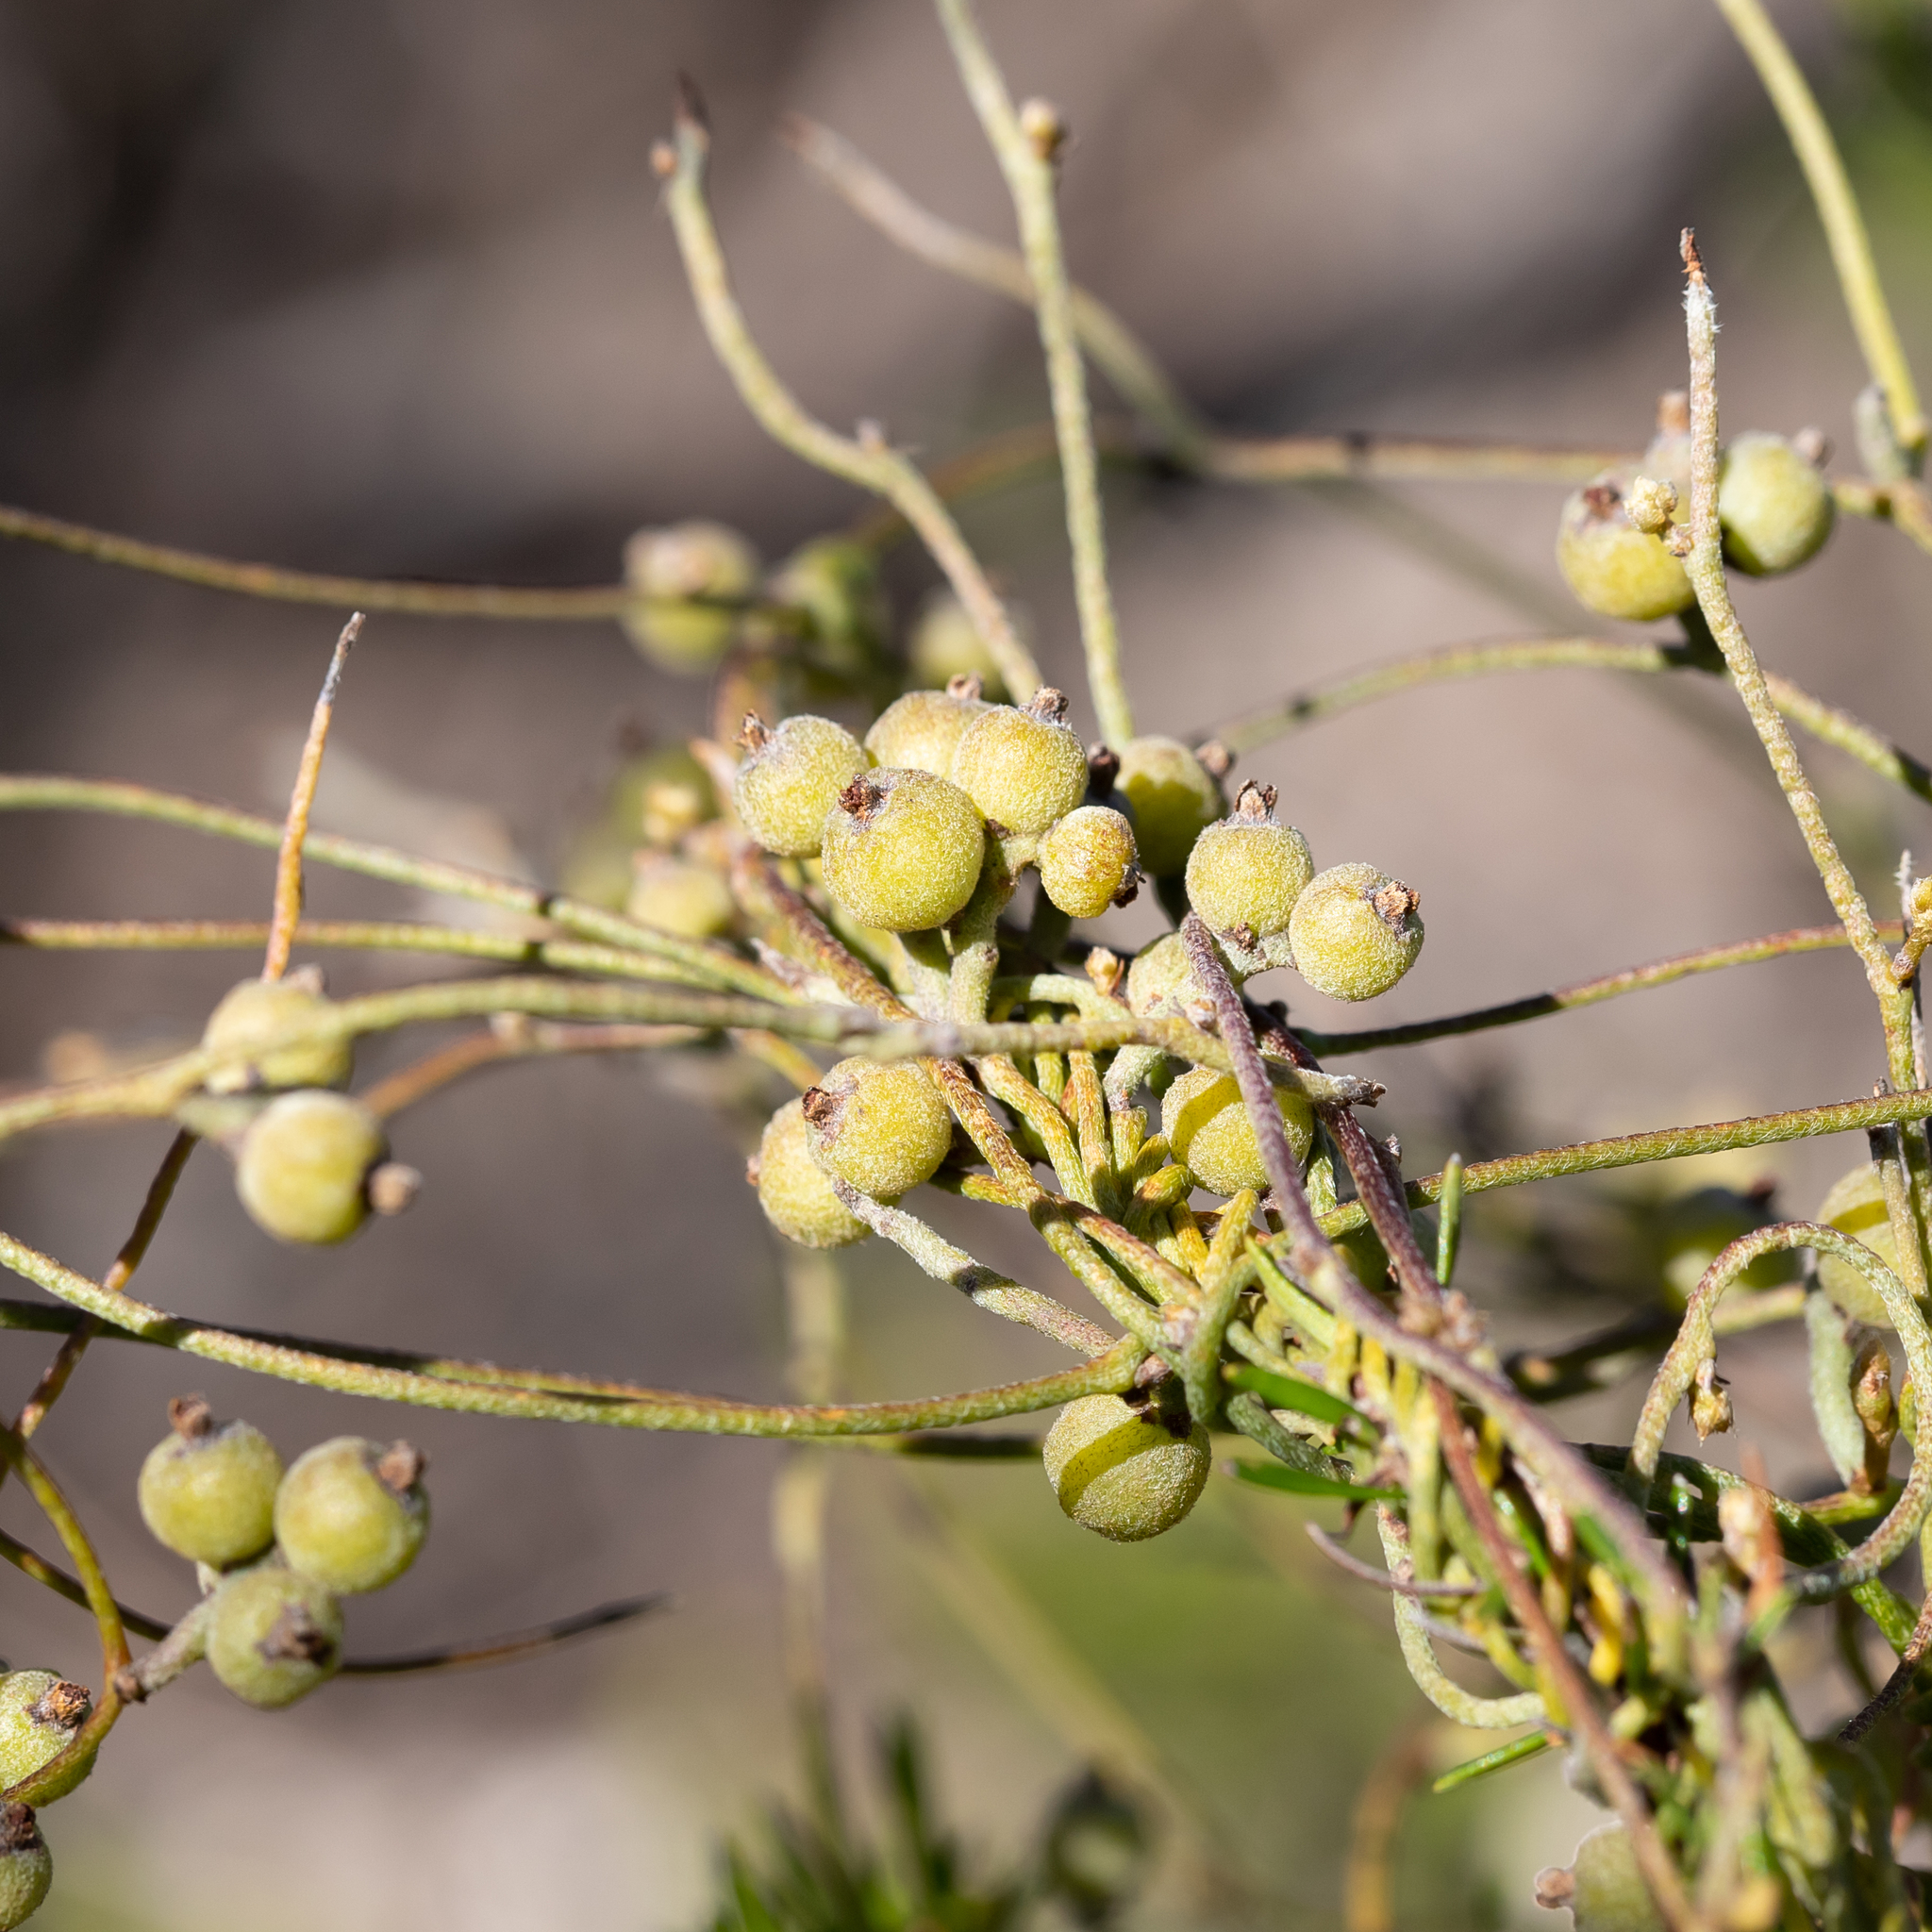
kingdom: Plantae
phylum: Tracheophyta
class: Magnoliopsida
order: Laurales
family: Lauraceae
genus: Cassytha
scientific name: Cassytha pubescens
